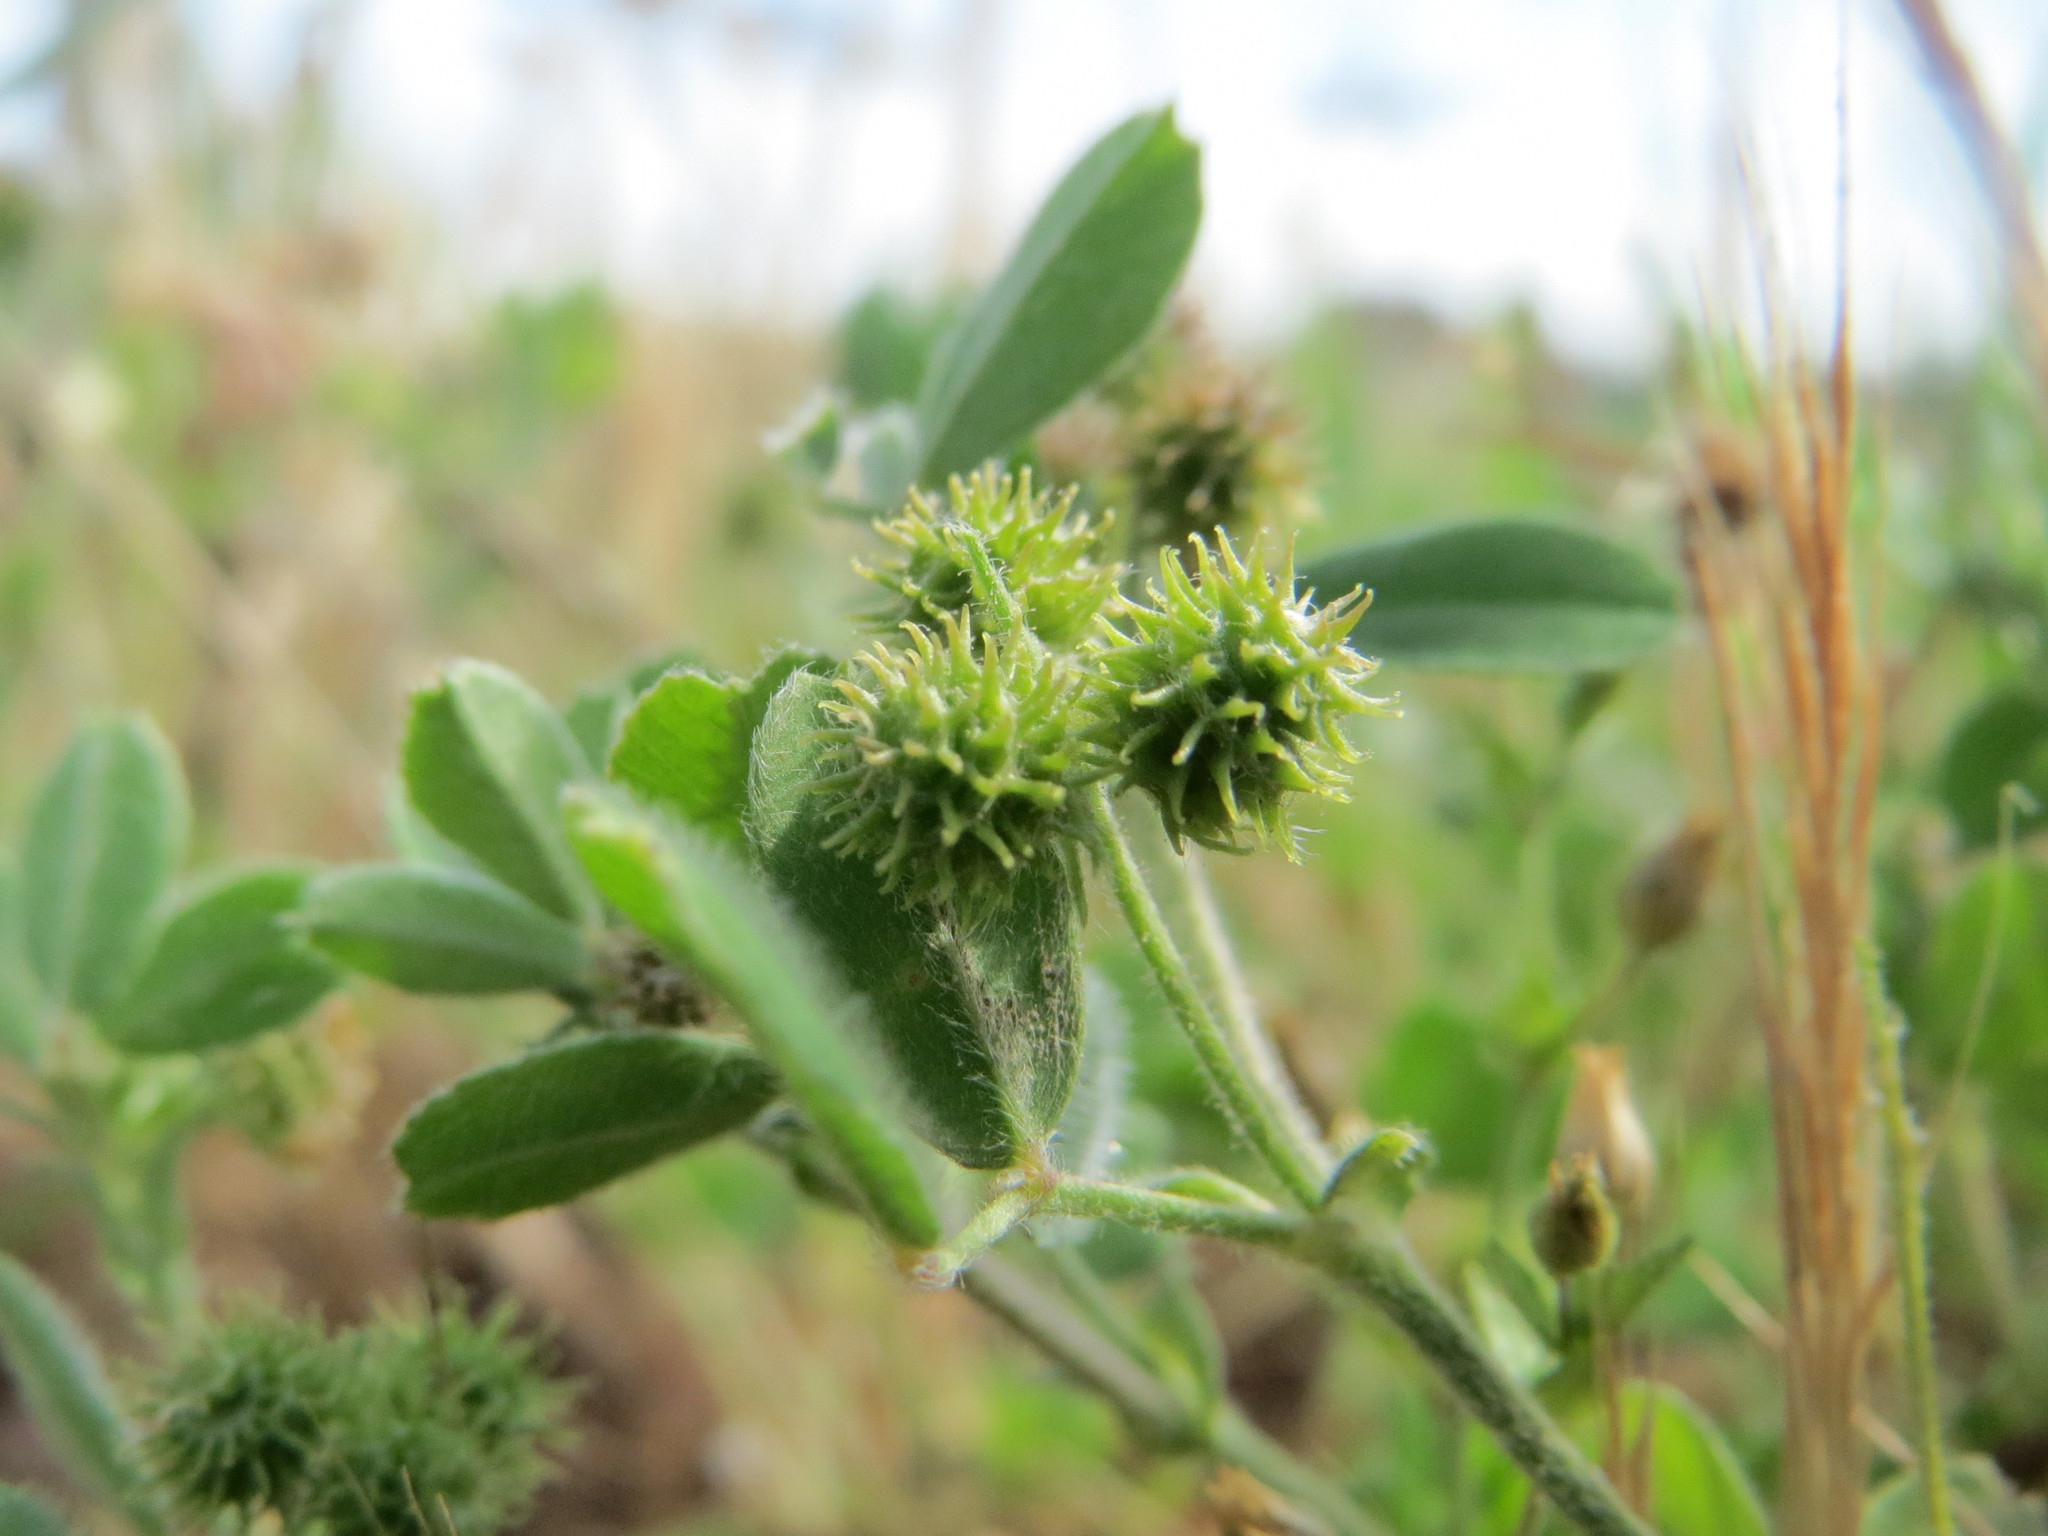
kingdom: Plantae
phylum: Tracheophyta
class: Magnoliopsida
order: Fabales
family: Fabaceae
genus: Medicago
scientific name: Medicago minima
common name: Little bur-clover
